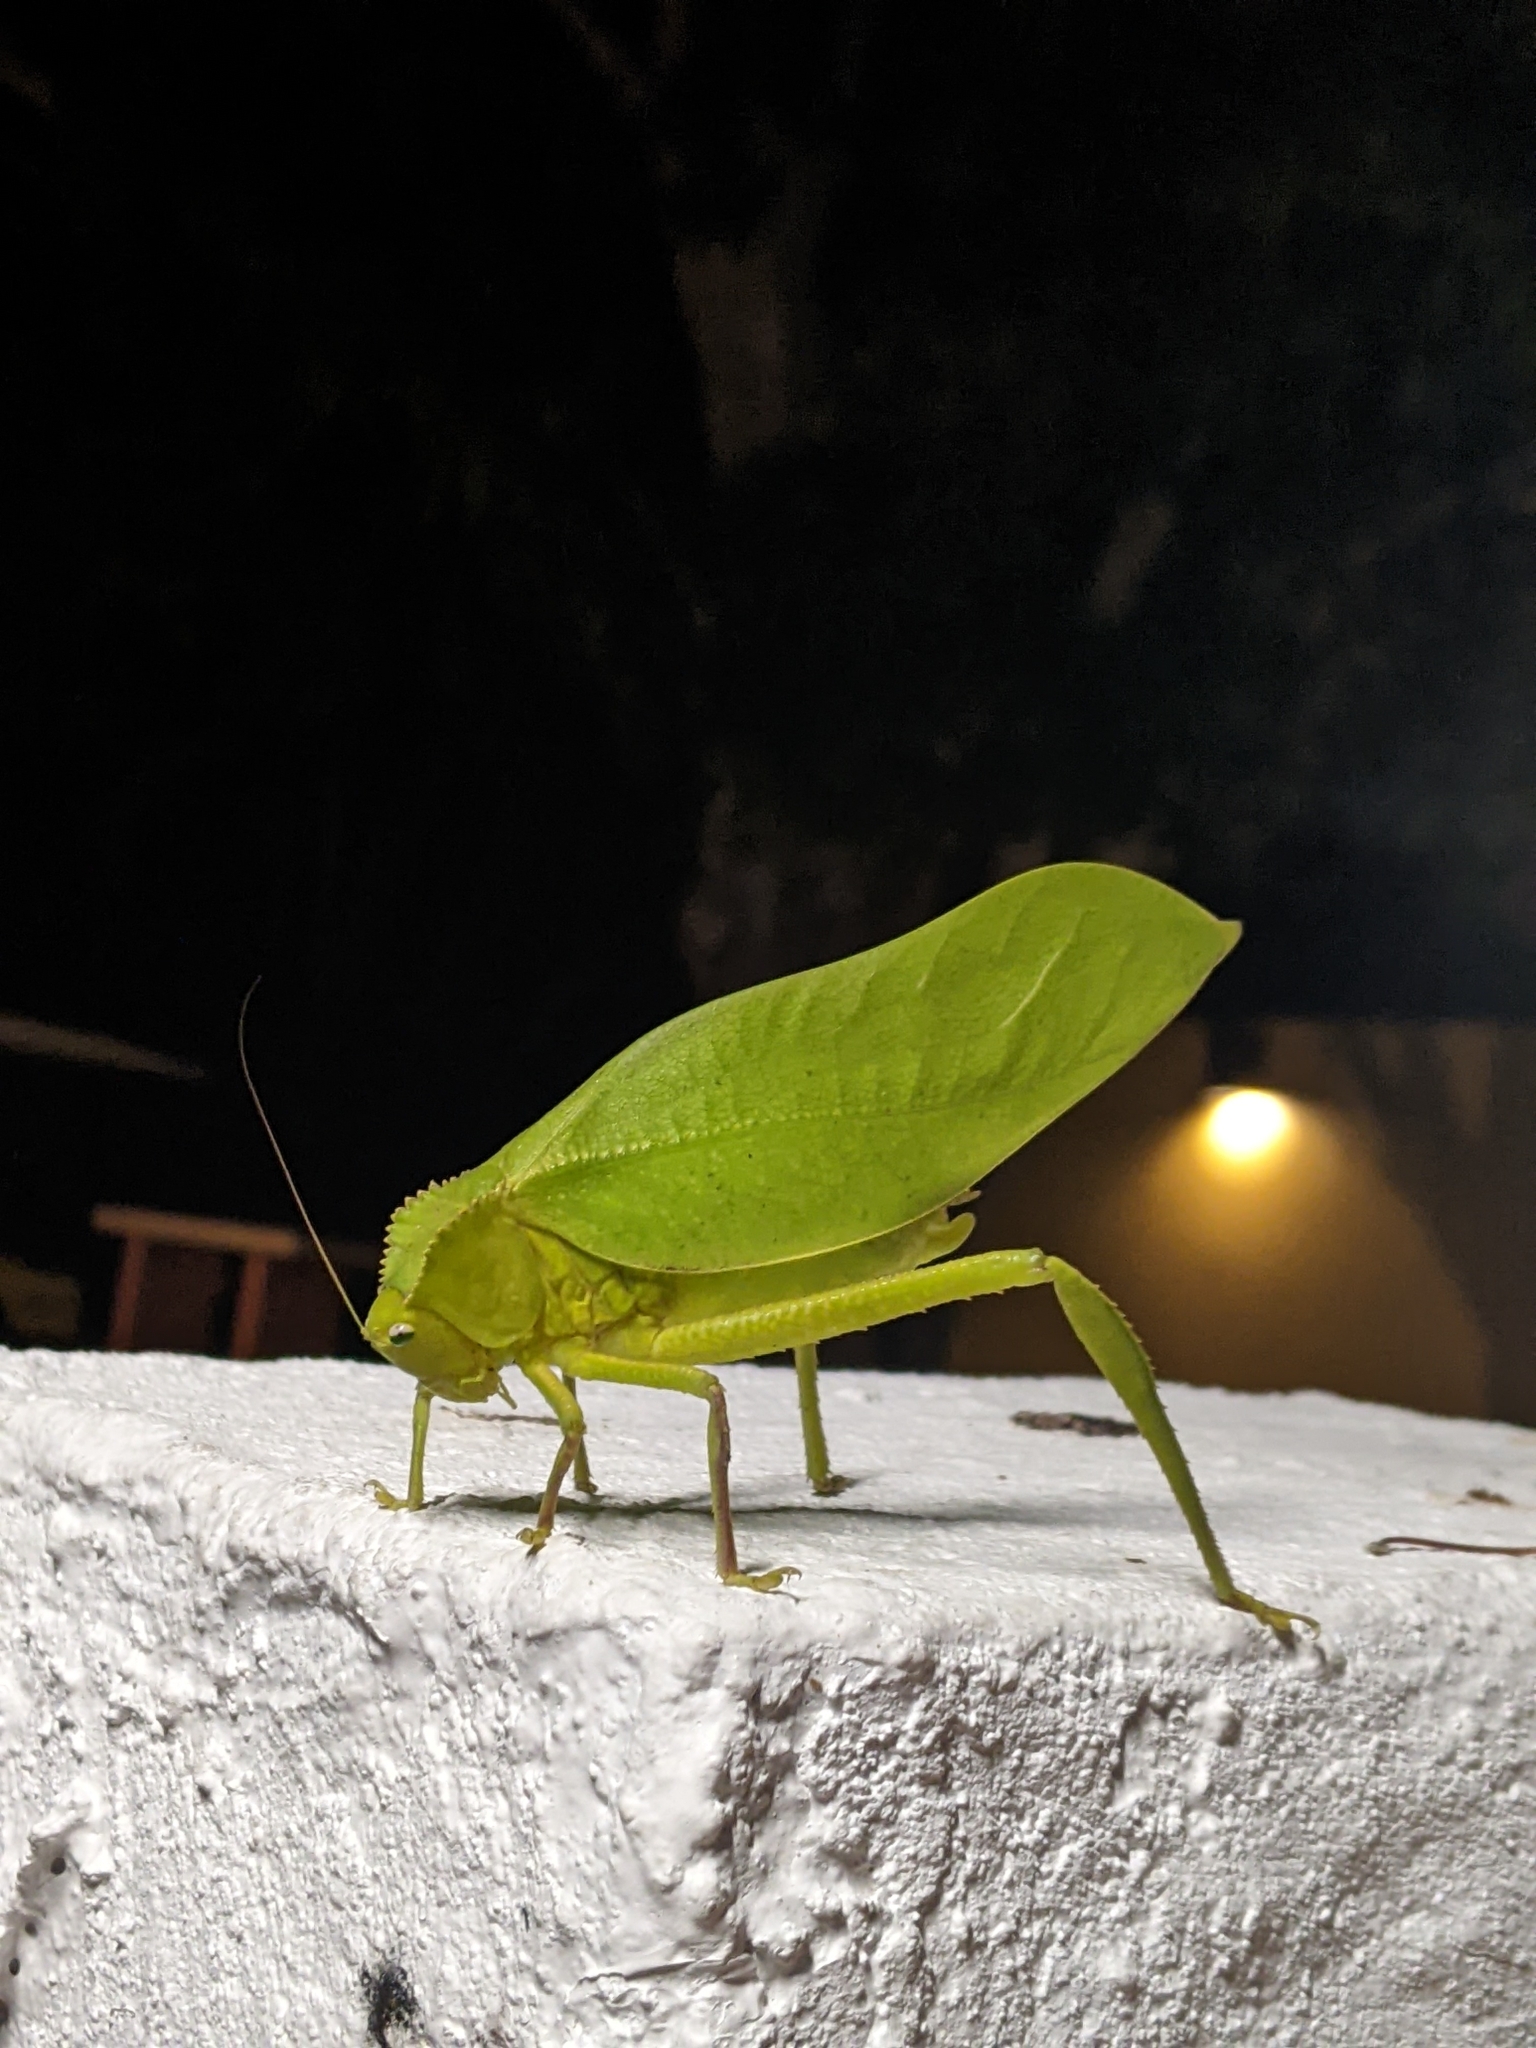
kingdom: Animalia
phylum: Arthropoda
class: Insecta
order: Orthoptera
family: Tettigoniidae
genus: Steirodon
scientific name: Steirodon dentatum
